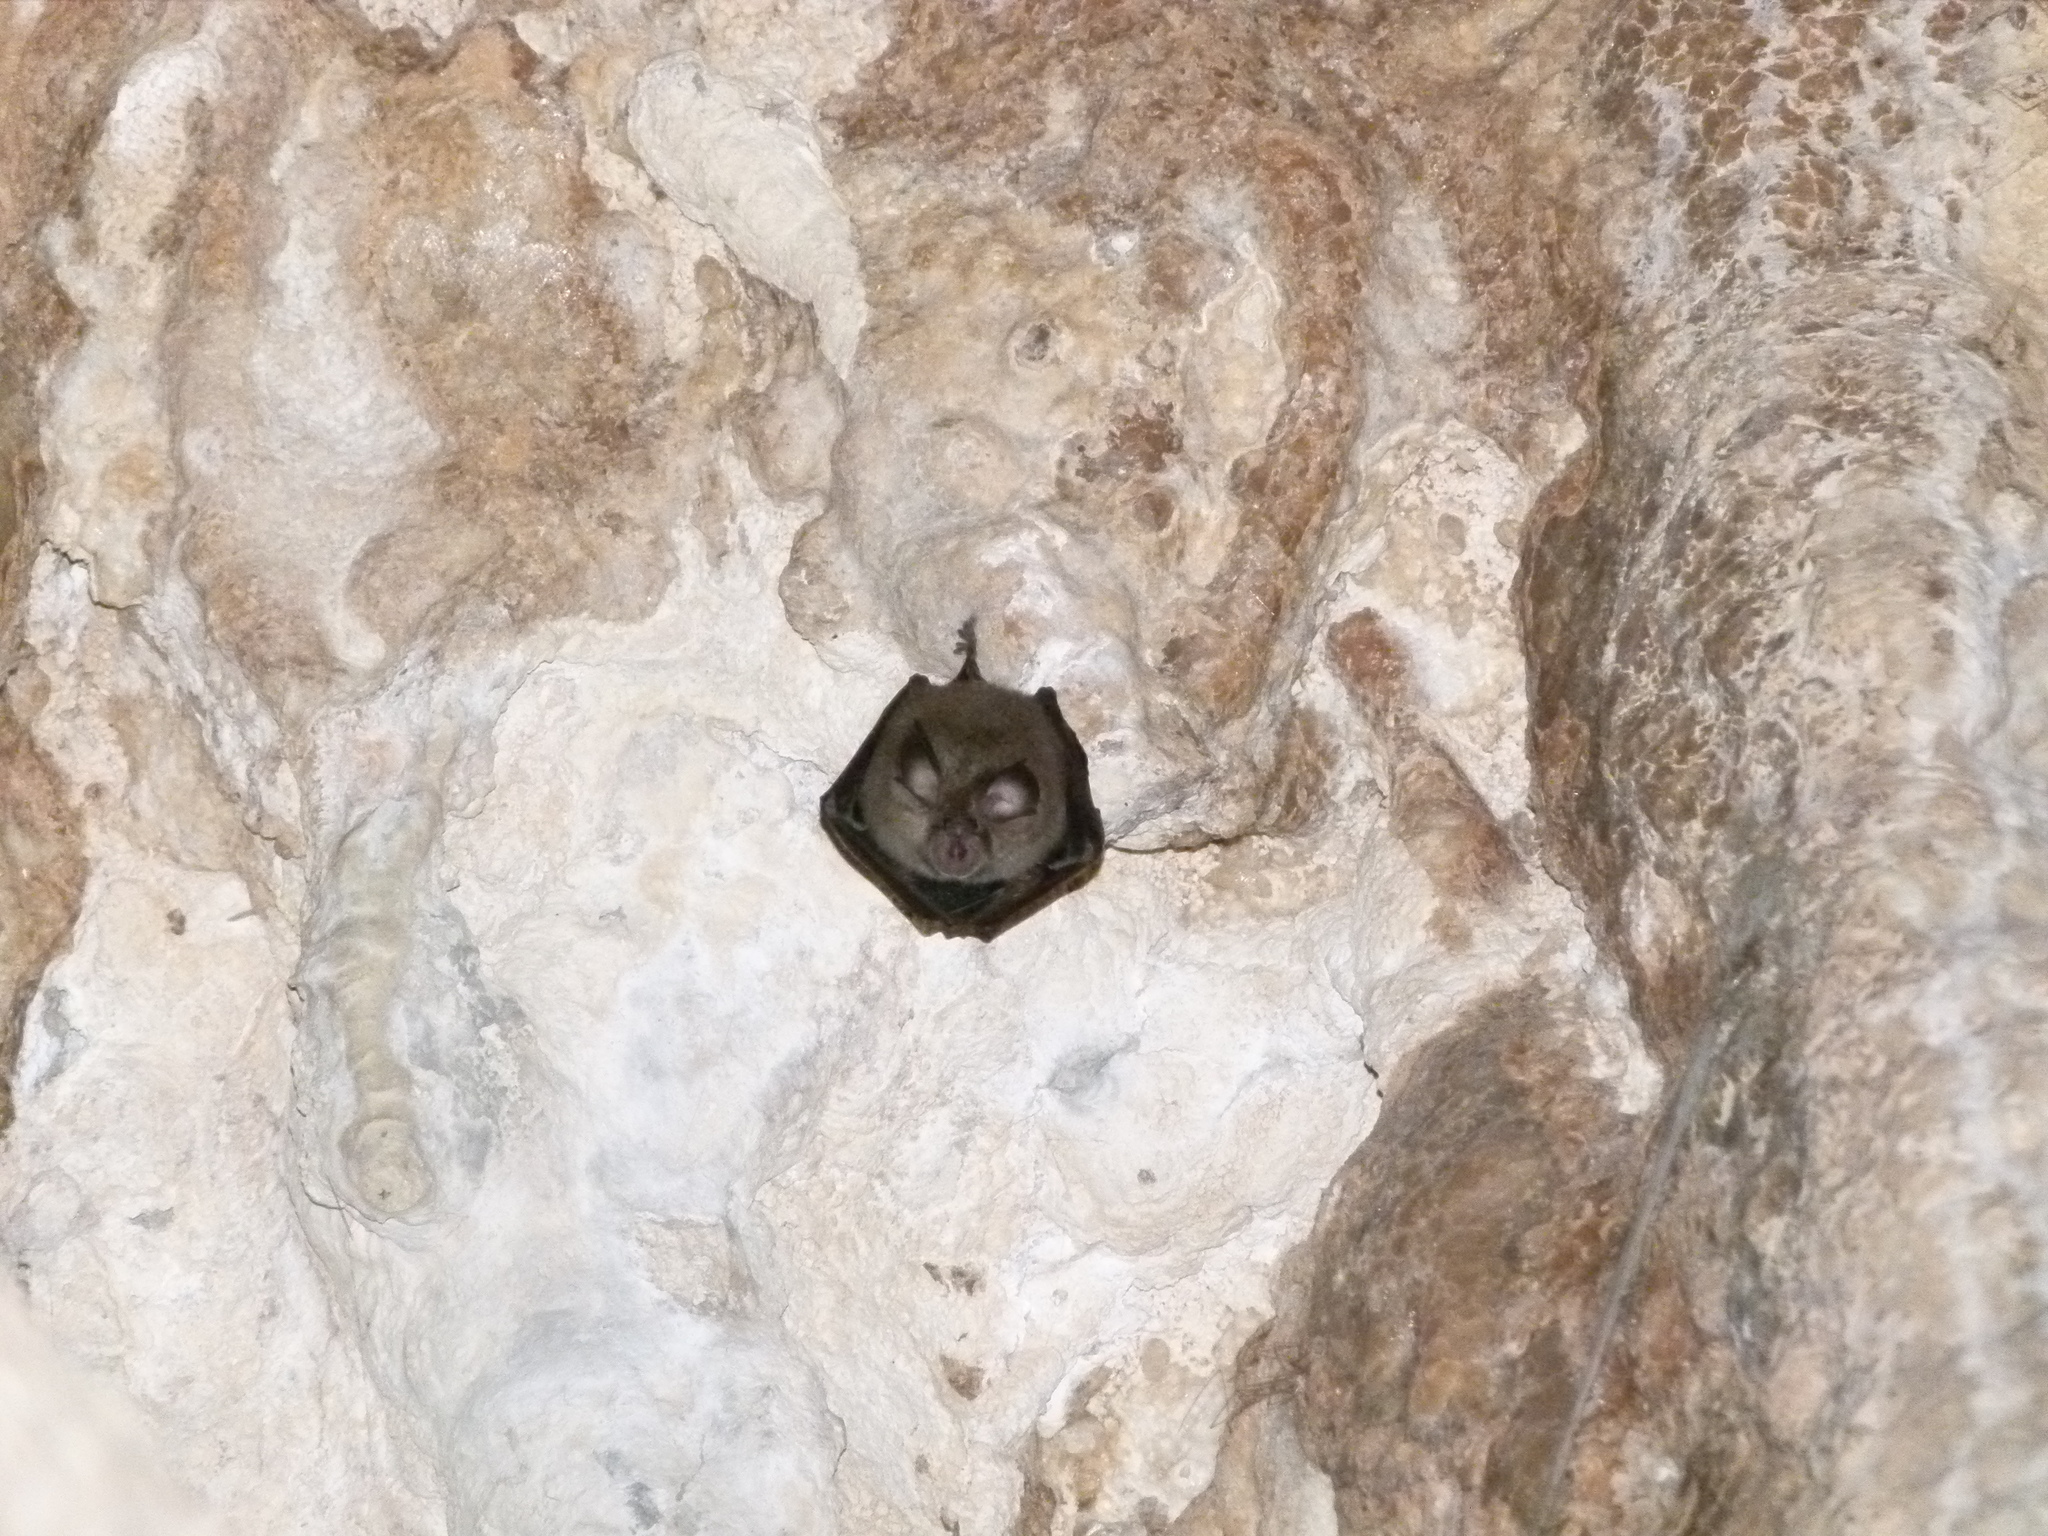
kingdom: Animalia
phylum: Chordata
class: Mammalia
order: Chiroptera
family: Rhinolophidae
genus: Rhinolophus
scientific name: Rhinolophus hipposideros
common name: Lesser horseshoe bat
